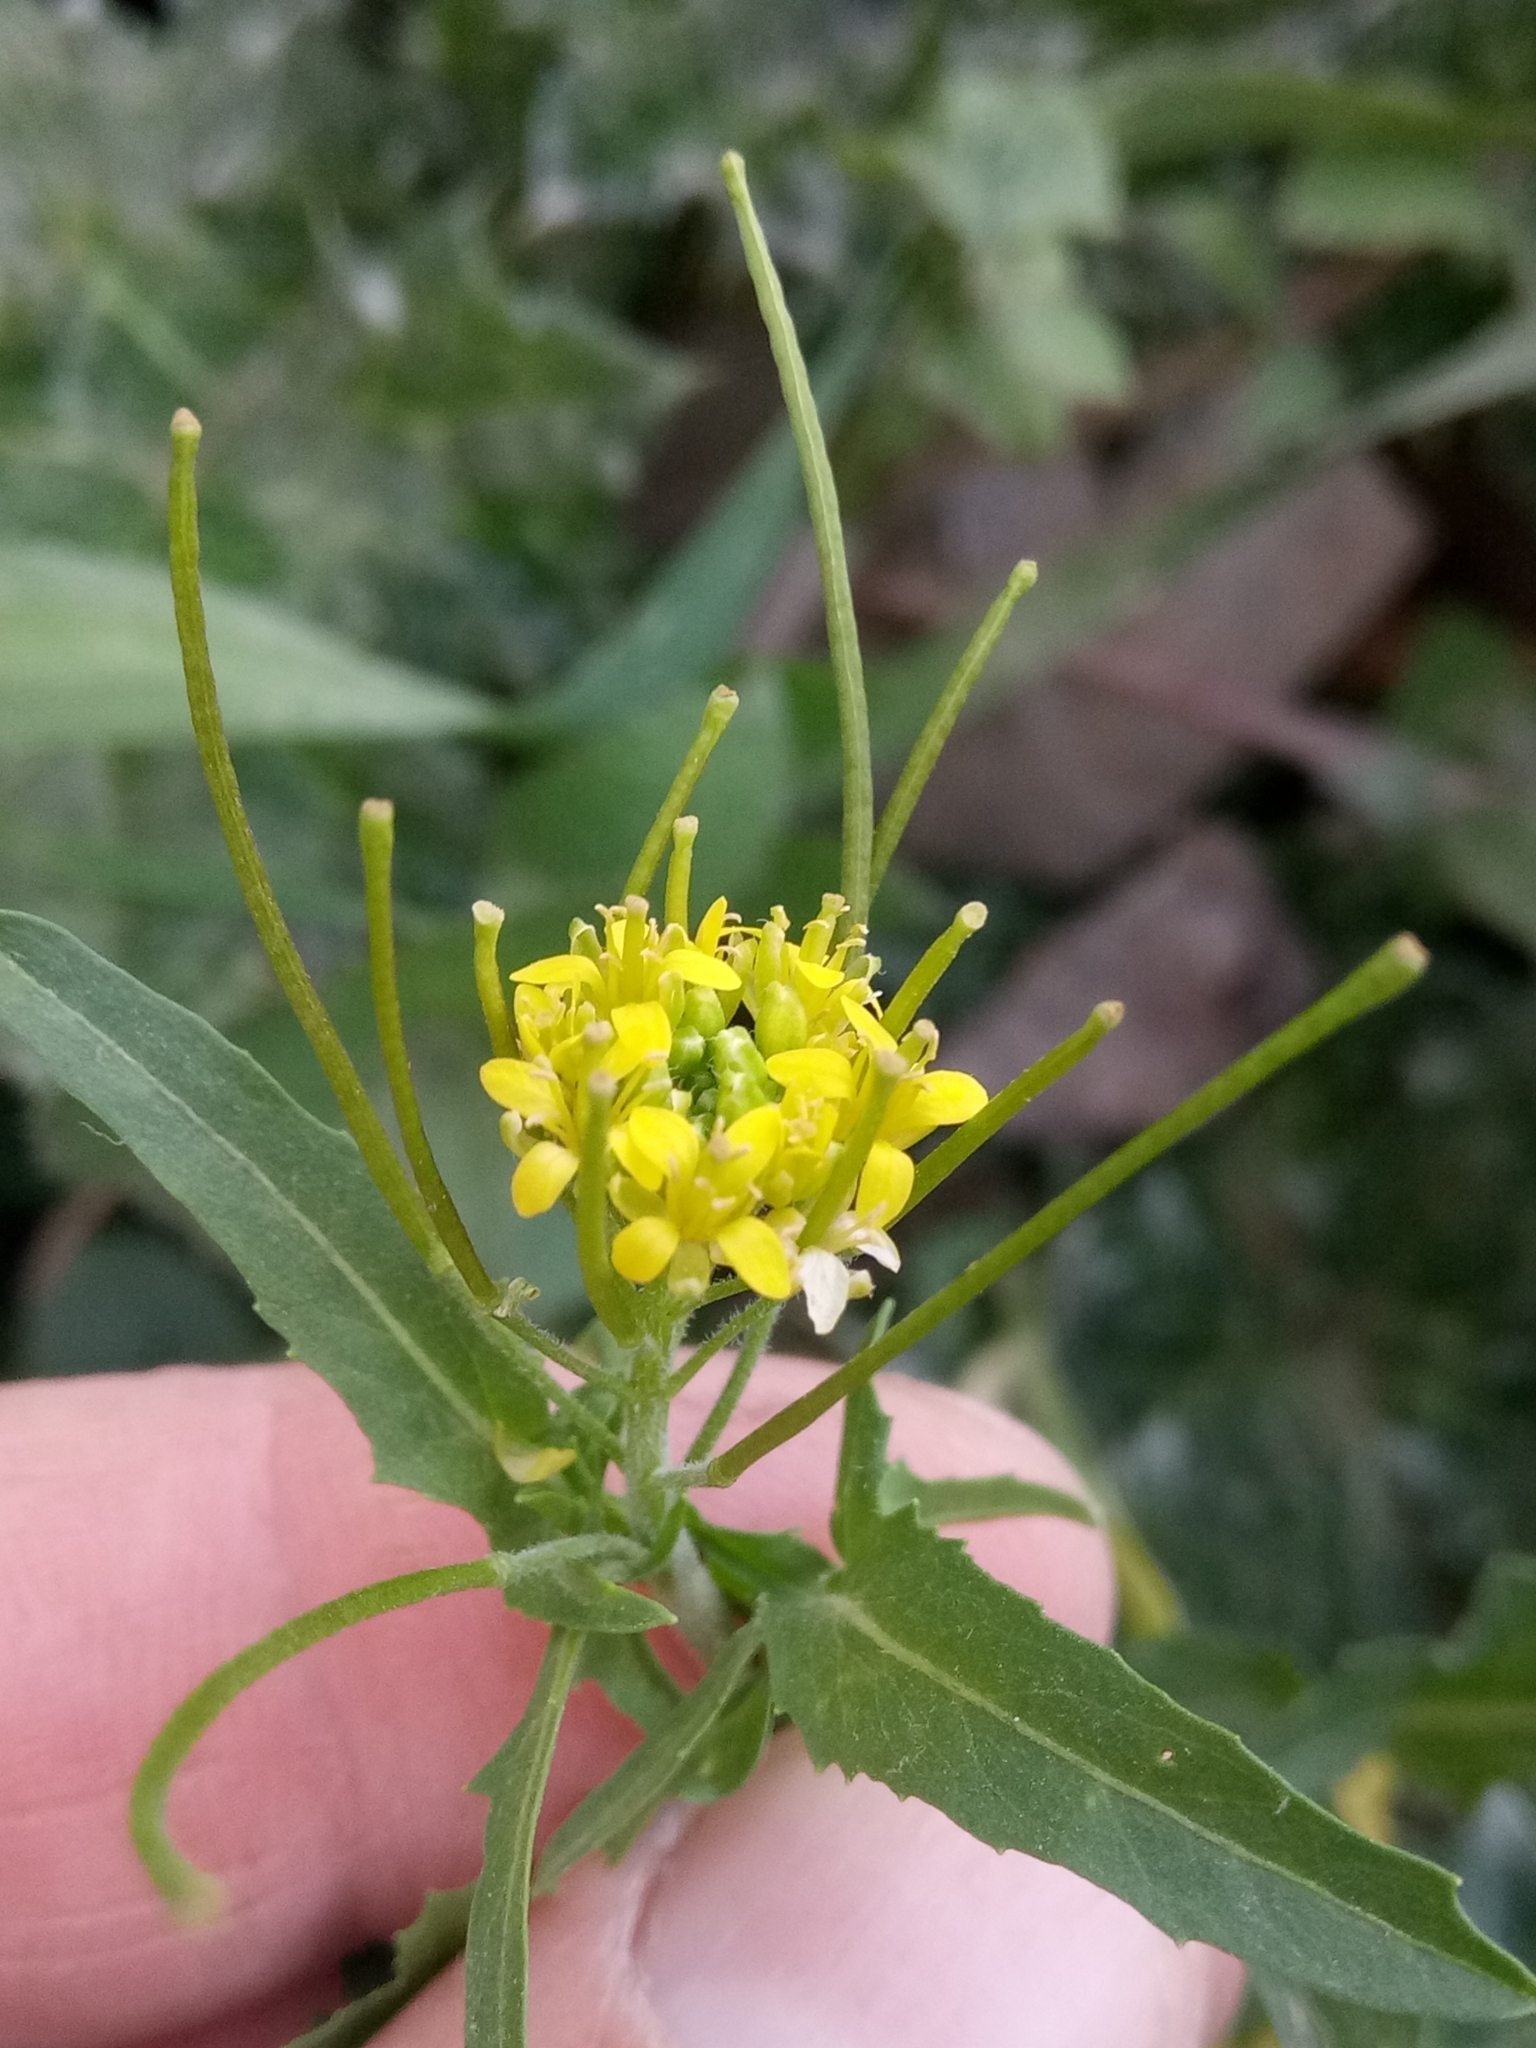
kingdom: Plantae
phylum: Tracheophyta
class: Magnoliopsida
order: Brassicales
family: Brassicaceae
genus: Sisymbrium
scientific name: Sisymbrium irio
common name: London rocket
